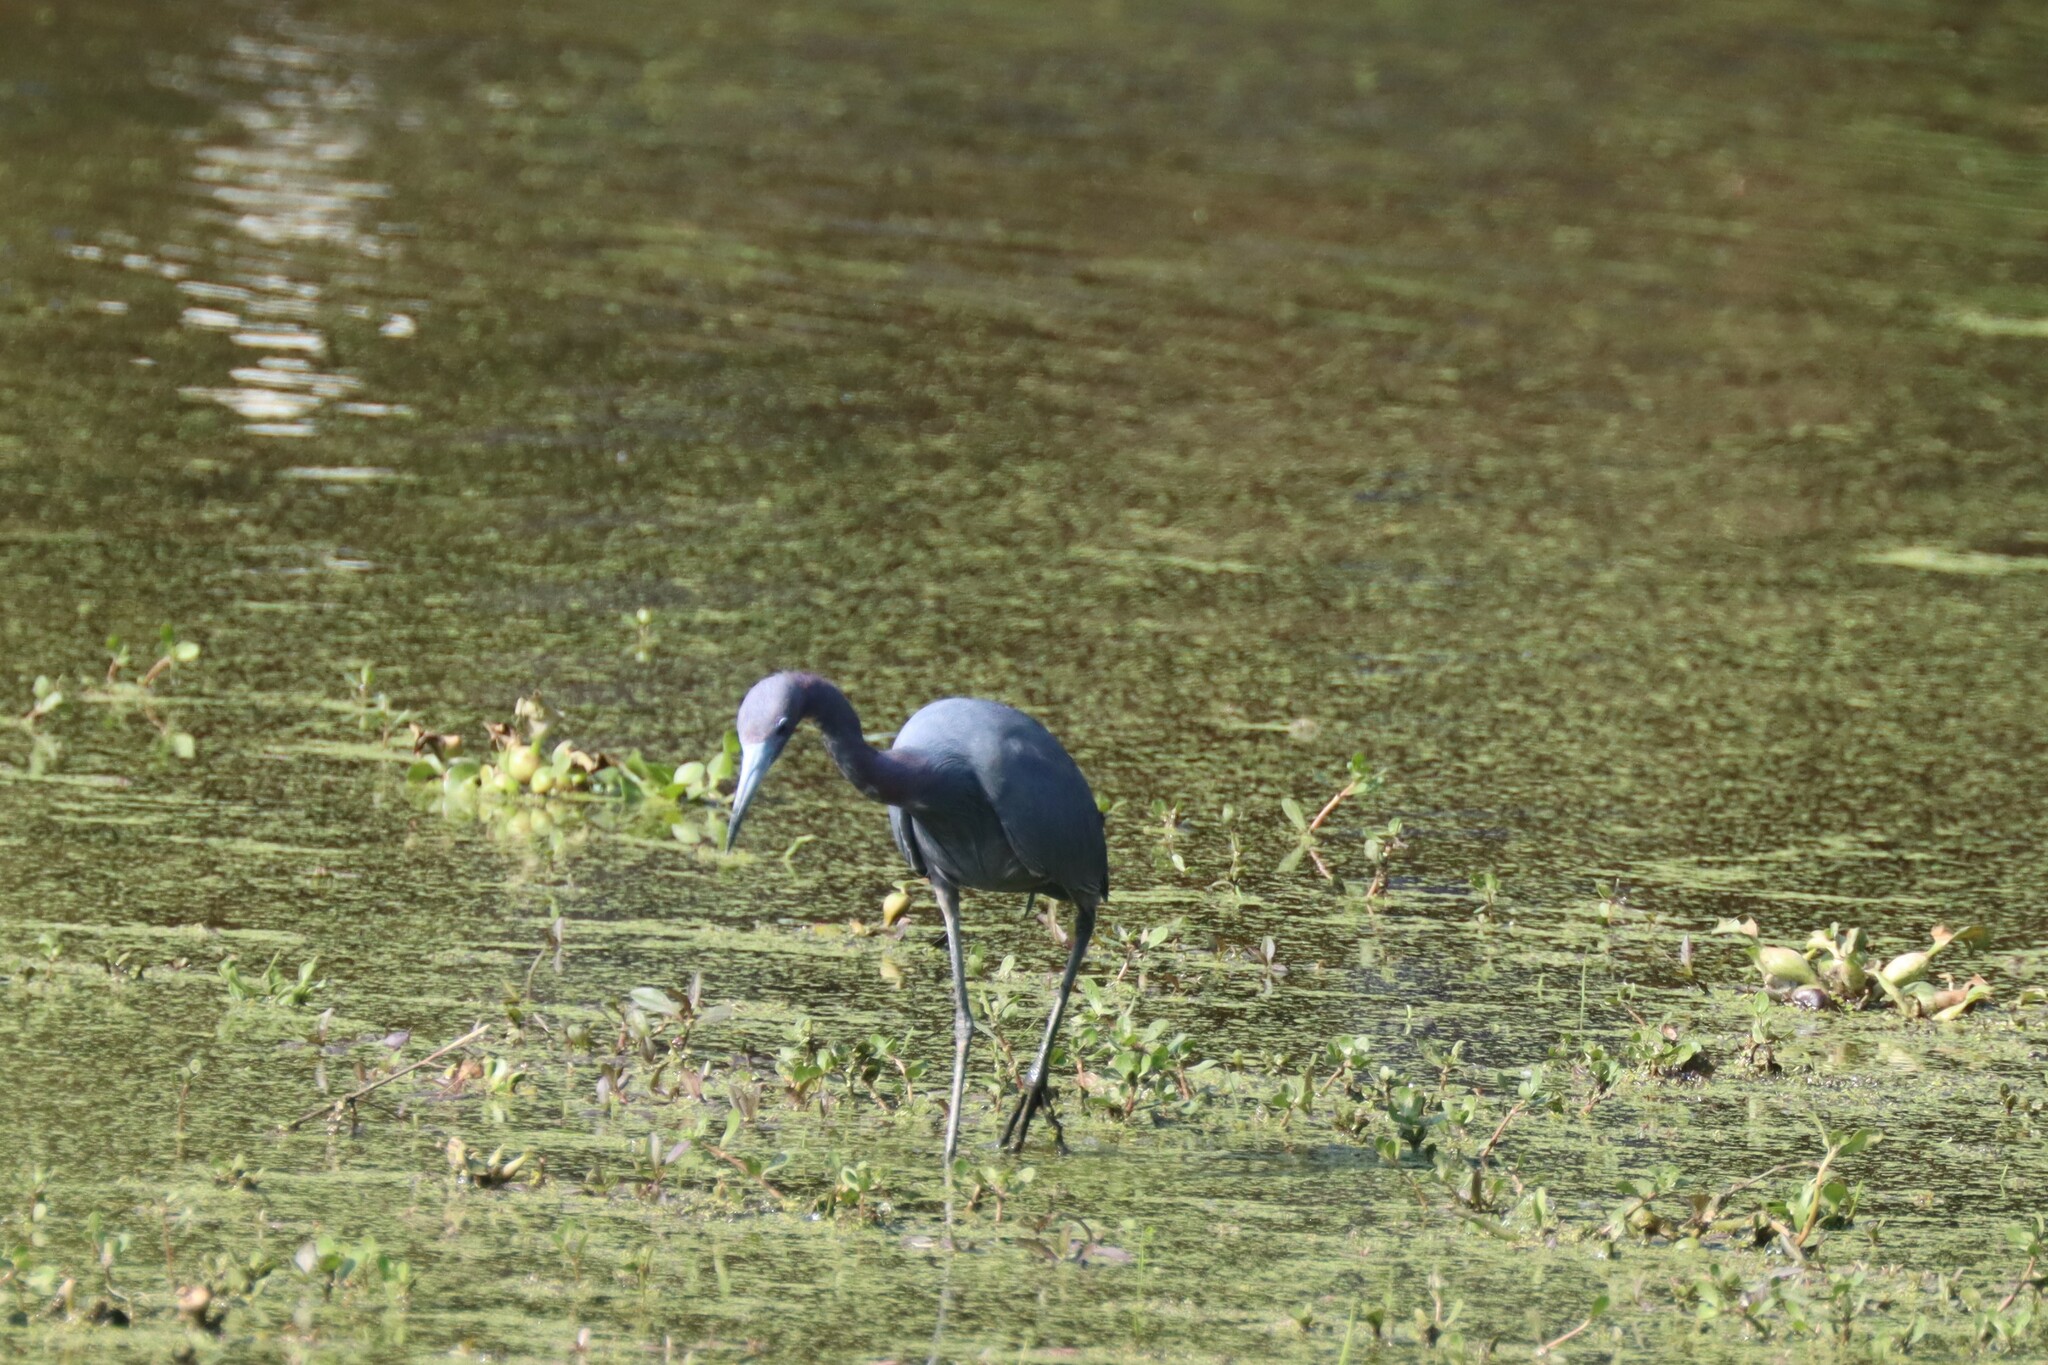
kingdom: Animalia
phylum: Chordata
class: Aves
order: Pelecaniformes
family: Ardeidae
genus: Egretta
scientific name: Egretta caerulea
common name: Little blue heron
